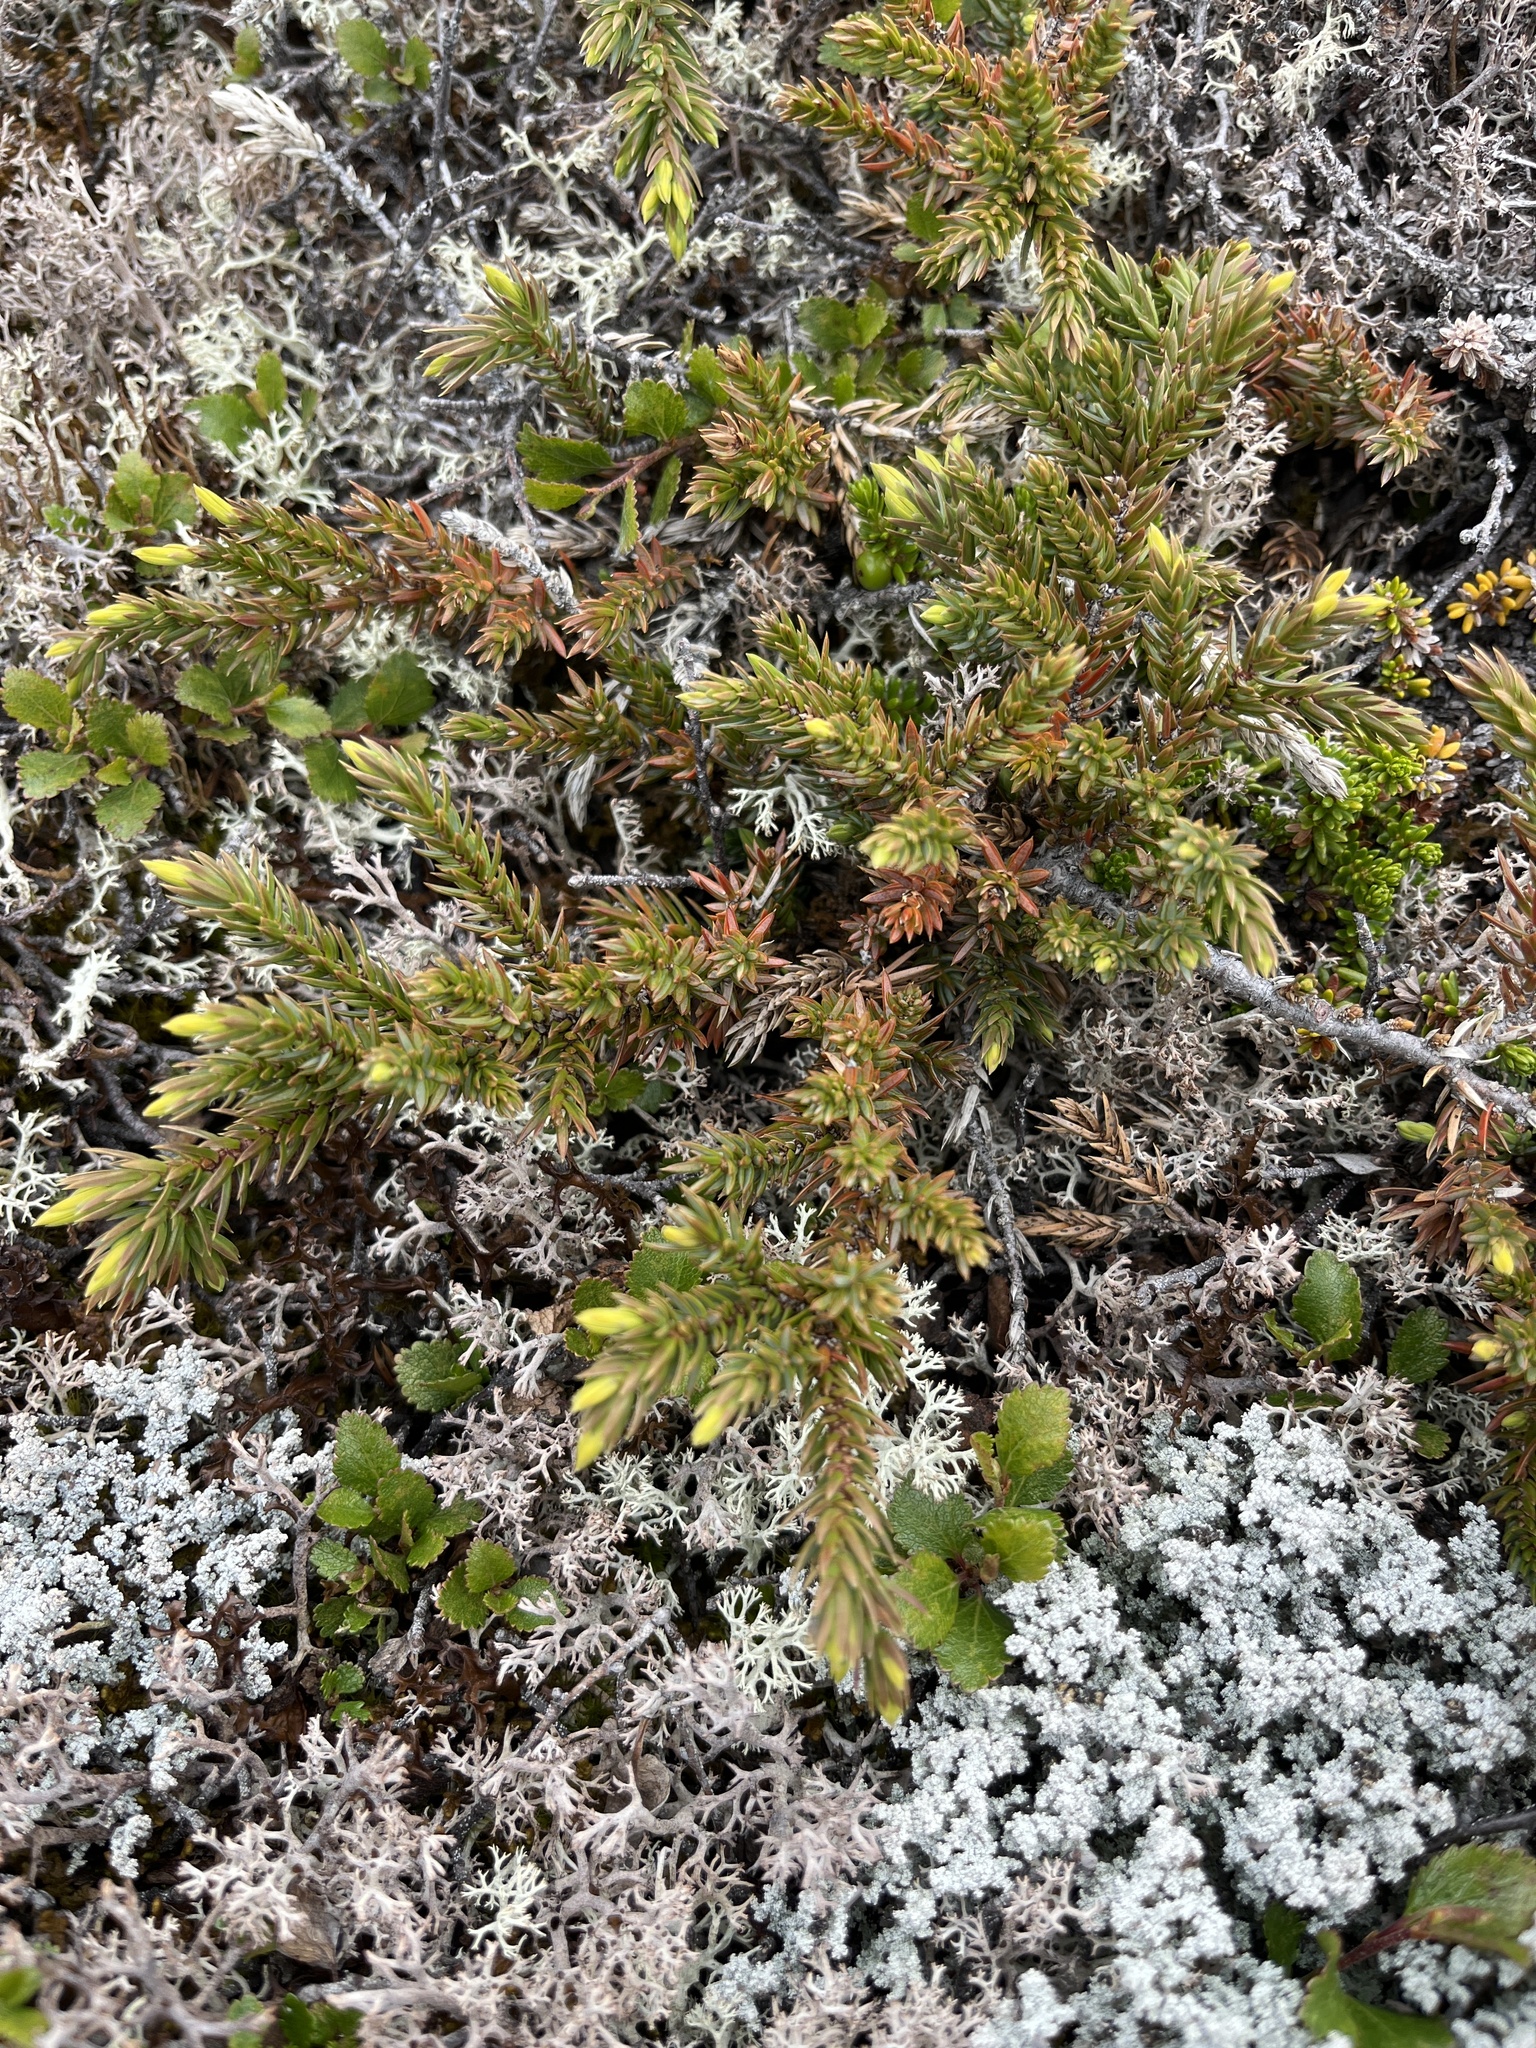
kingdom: Plantae
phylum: Tracheophyta
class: Pinopsida
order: Pinales
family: Cupressaceae
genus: Juniperus
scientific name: Juniperus communis
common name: Common juniper
